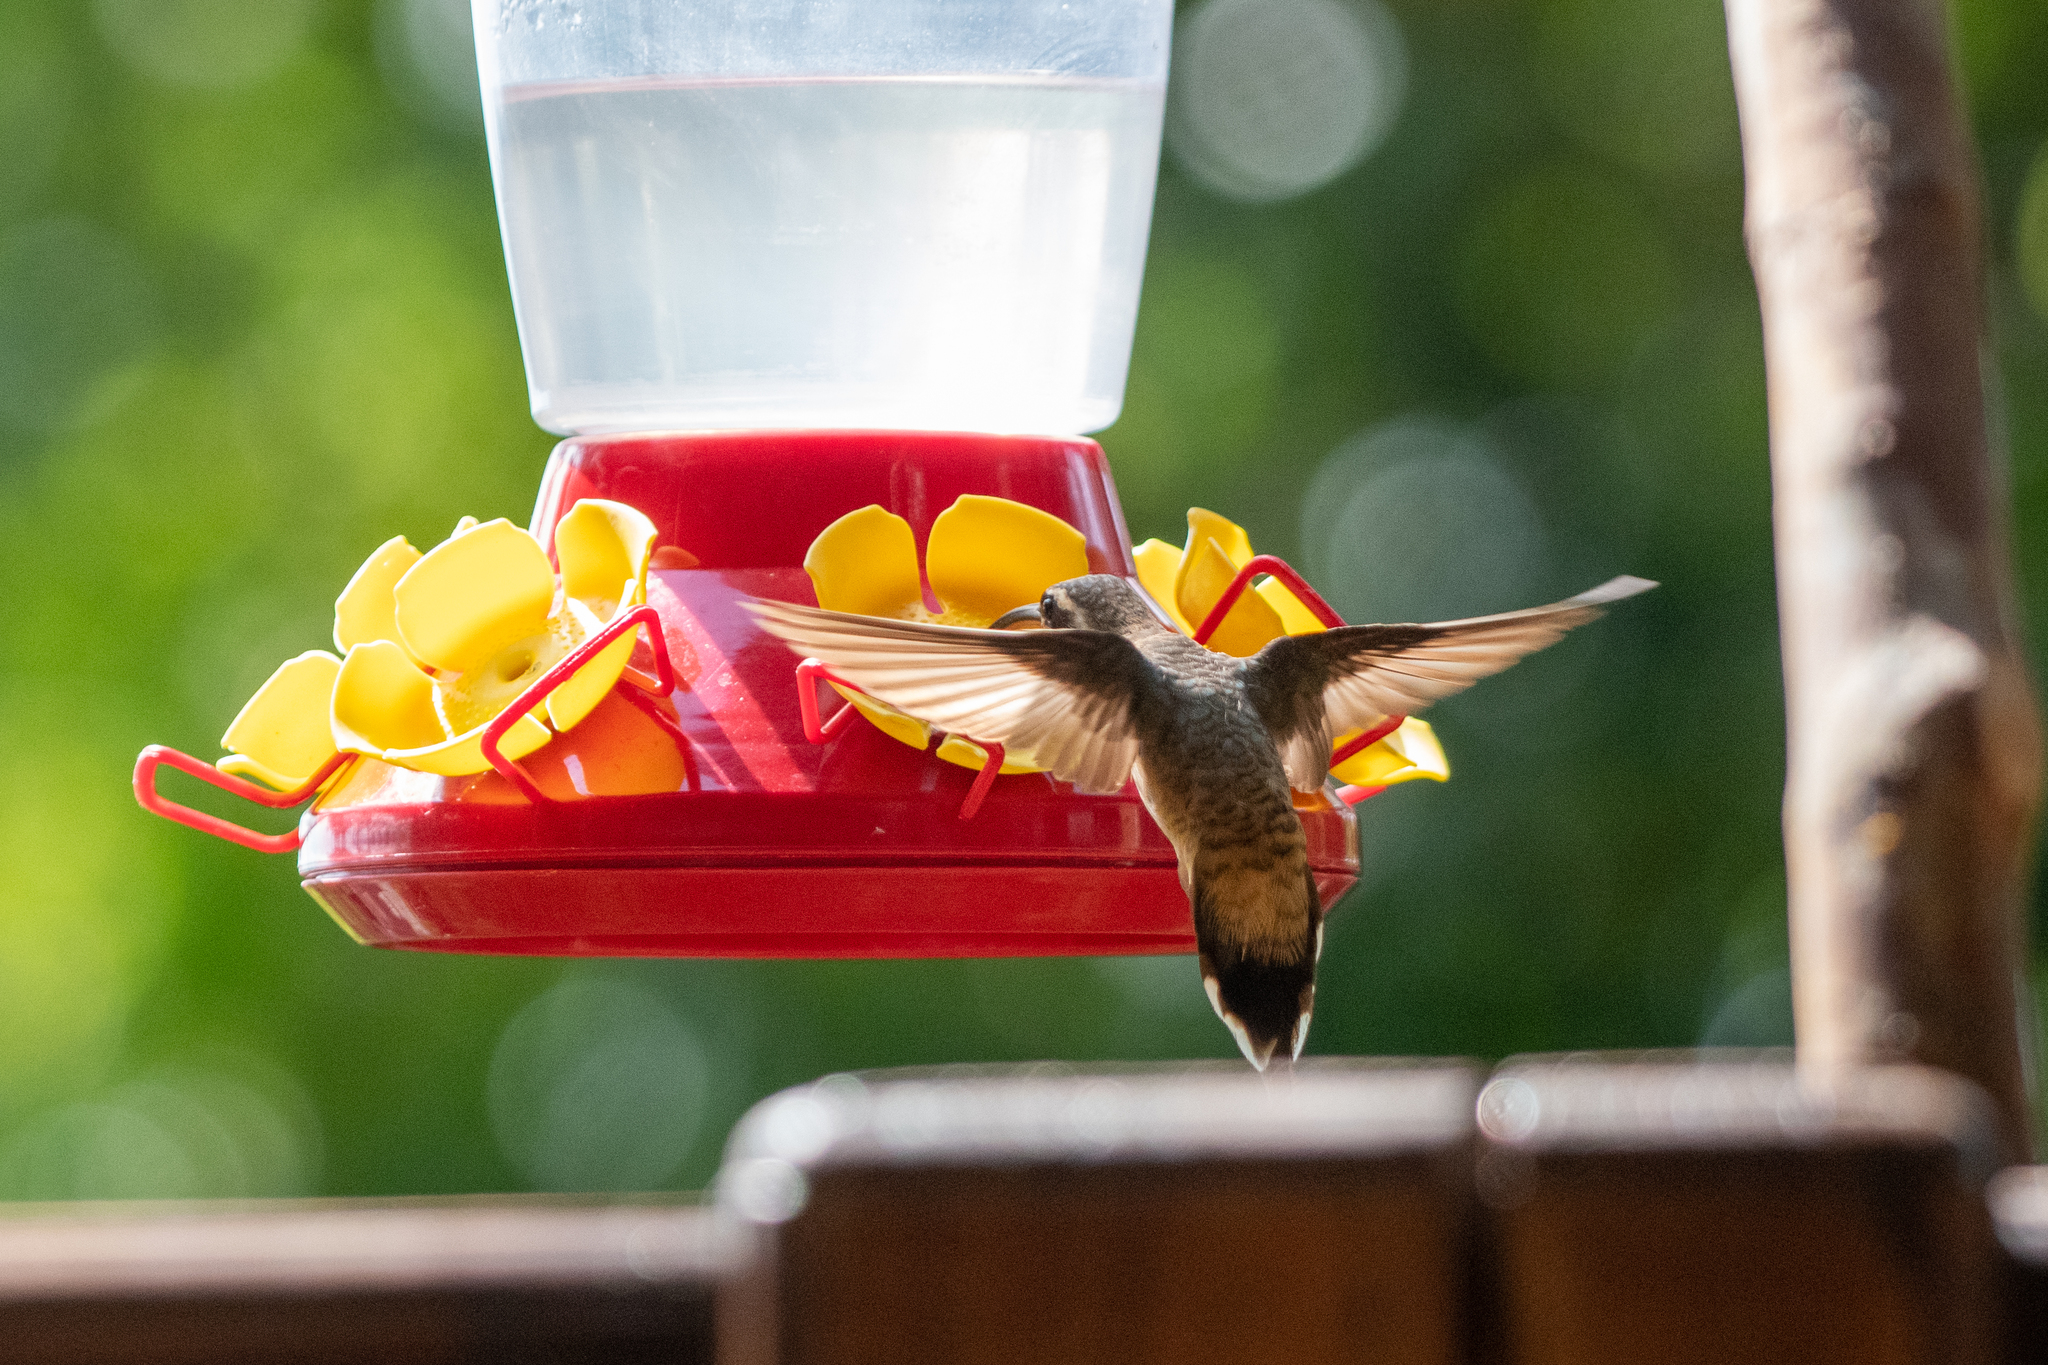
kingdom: Animalia
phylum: Chordata
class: Aves
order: Apodiformes
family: Trochilidae
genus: Phaethornis
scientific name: Phaethornis longirostris
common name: Long-billed hermit
